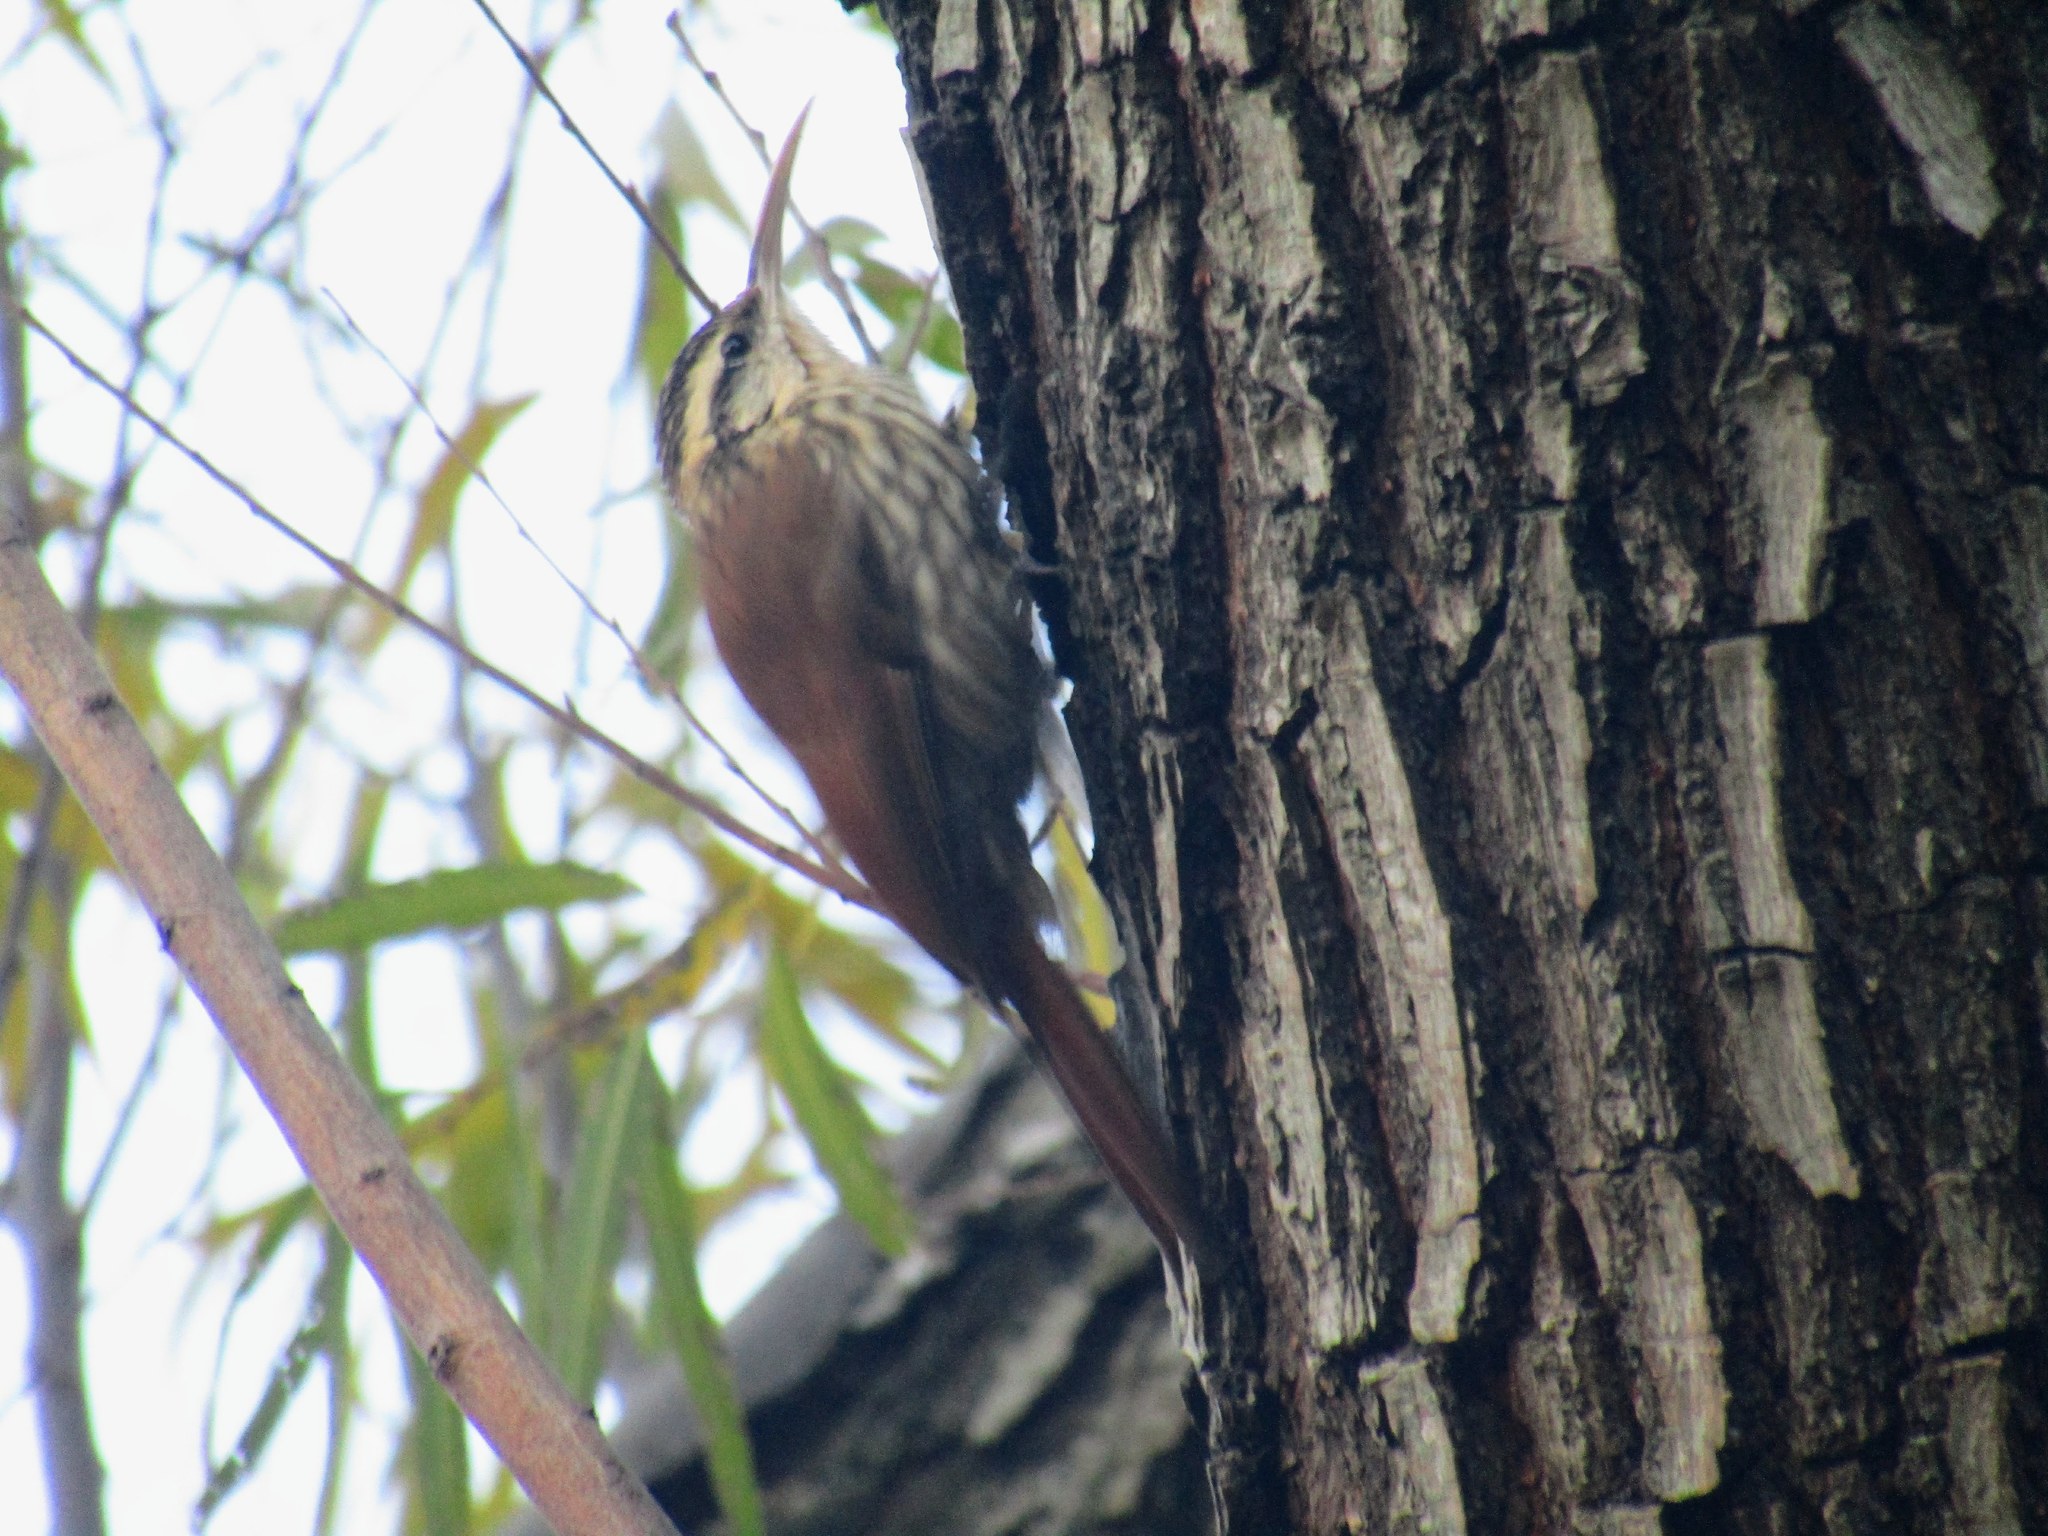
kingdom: Animalia
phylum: Chordata
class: Aves
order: Passeriformes
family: Furnariidae
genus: Lepidocolaptes
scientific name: Lepidocolaptes angustirostris
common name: Narrow-billed woodcreeper
